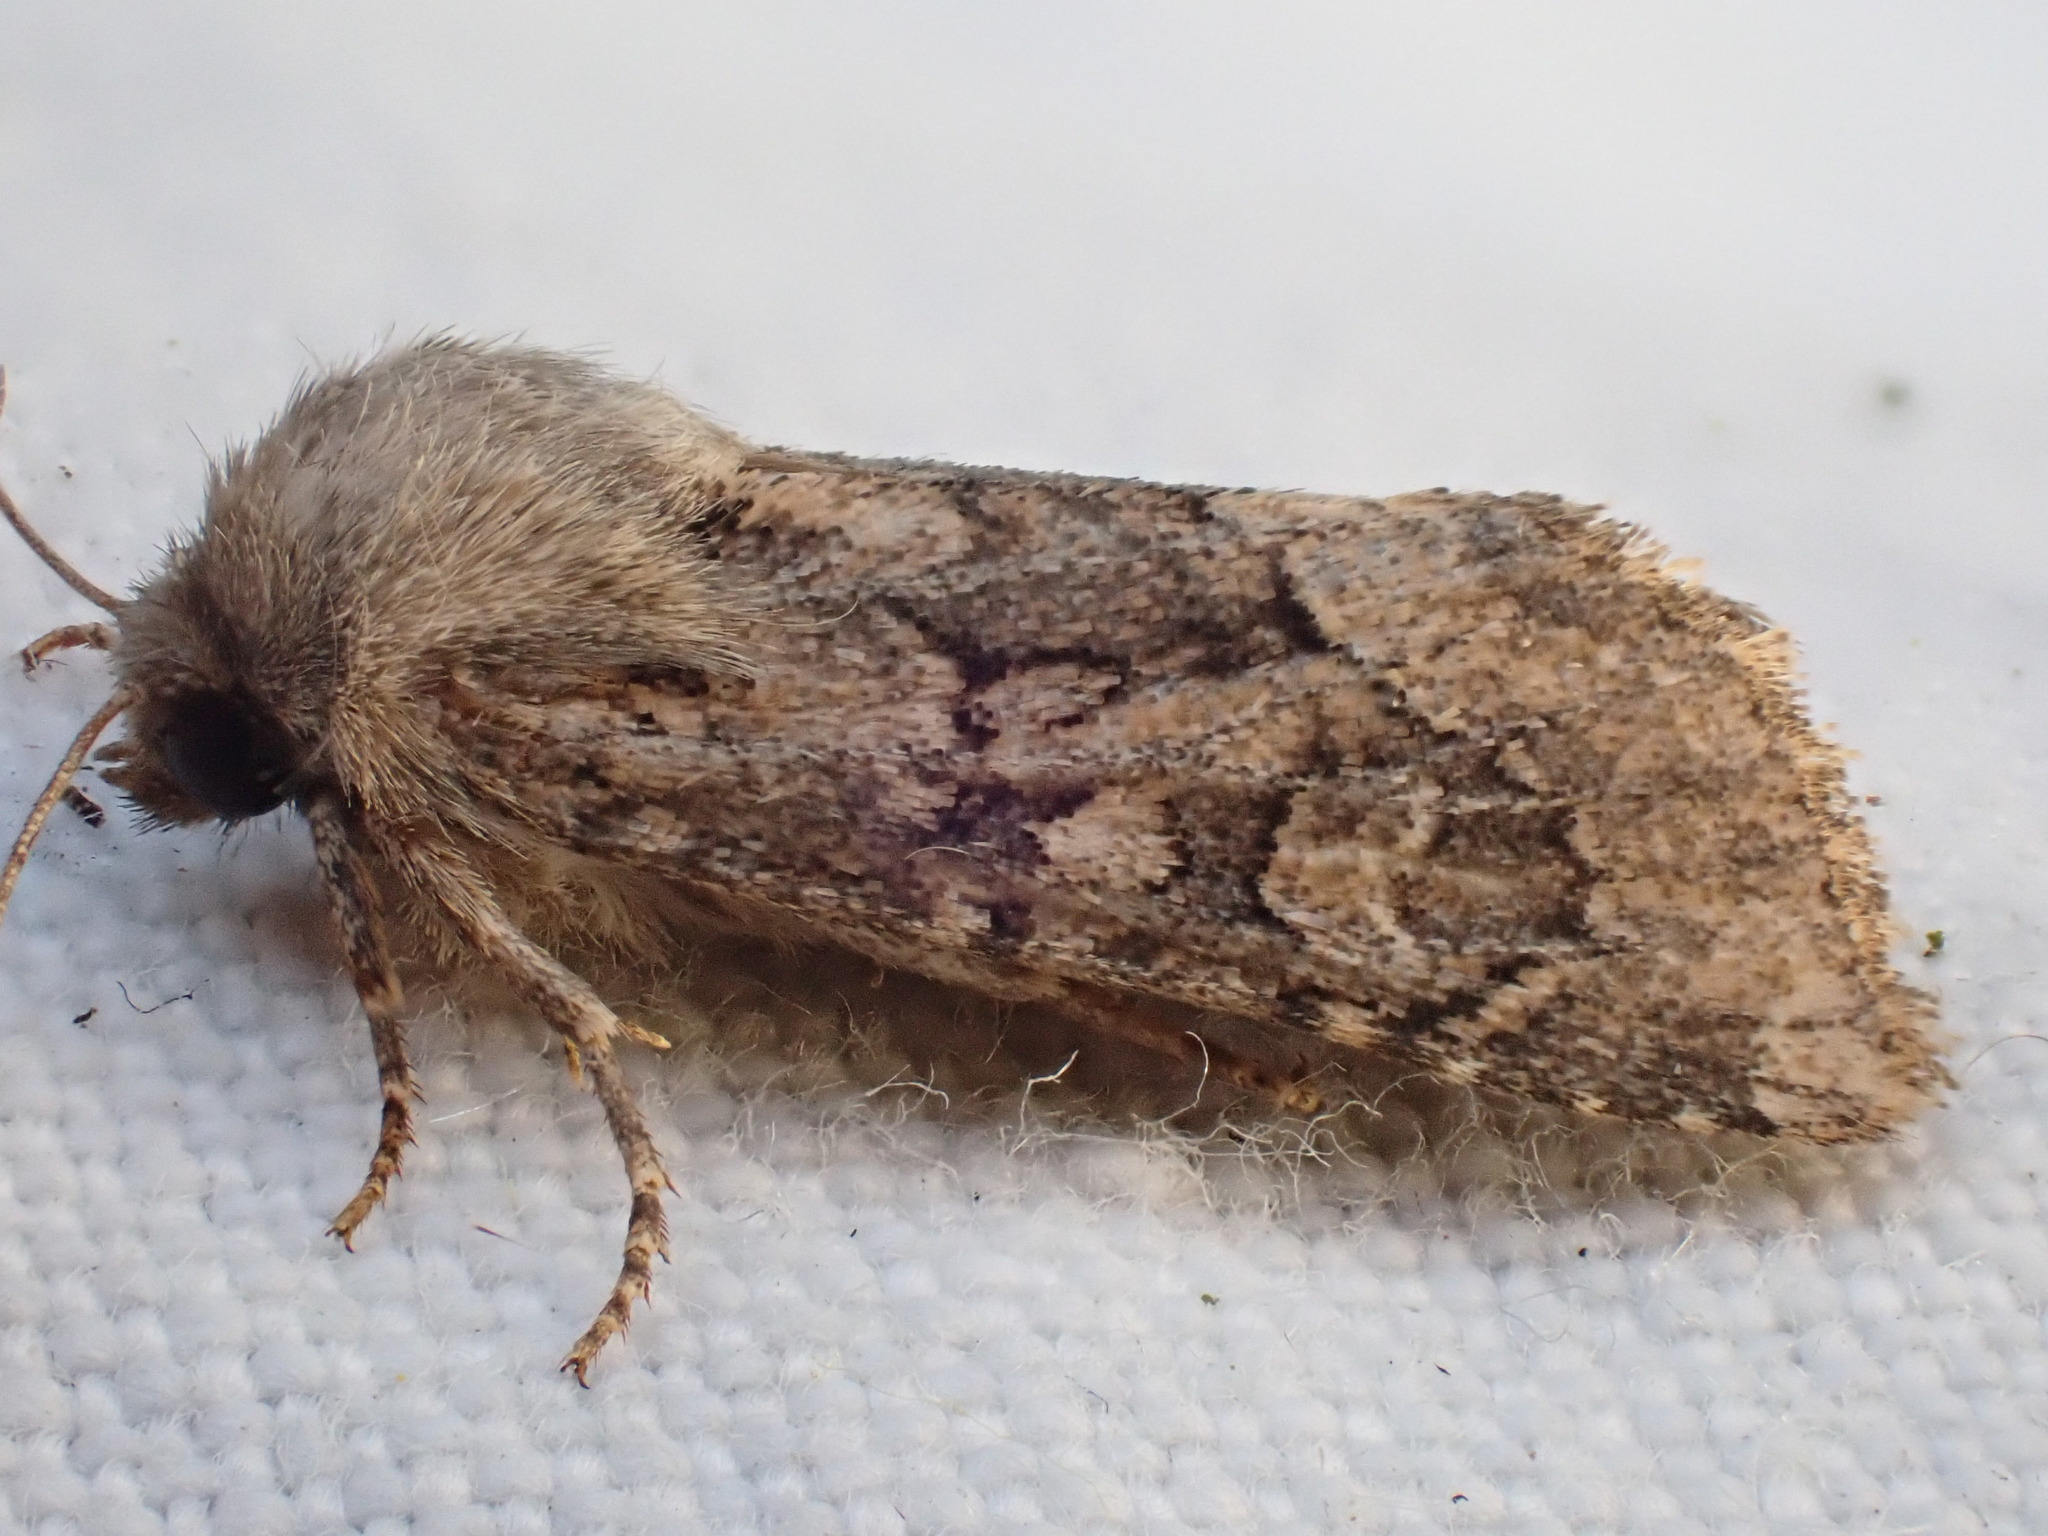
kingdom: Animalia
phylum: Arthropoda
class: Insecta
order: Lepidoptera
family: Noctuidae
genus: Luperina
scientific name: Luperina testacea
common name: Flounced rustic
